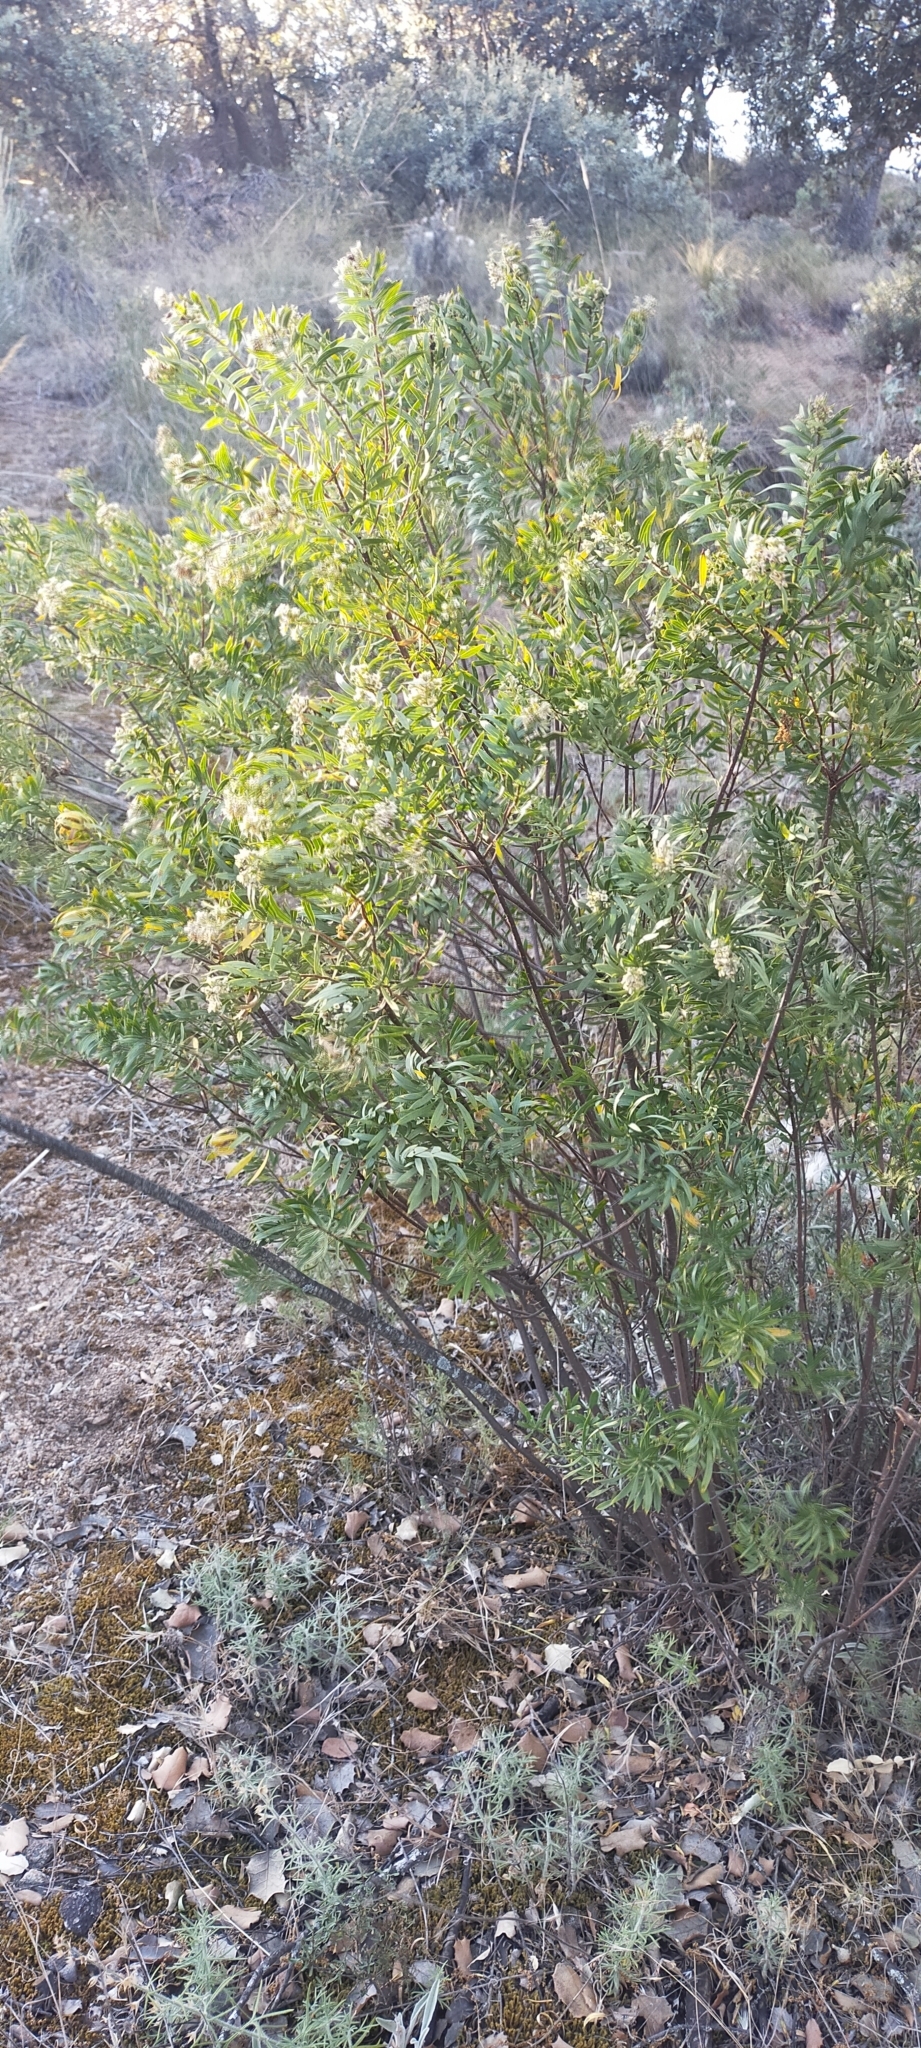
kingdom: Plantae
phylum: Tracheophyta
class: Magnoliopsida
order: Malvales
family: Thymelaeaceae
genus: Daphne
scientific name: Daphne gnidium
